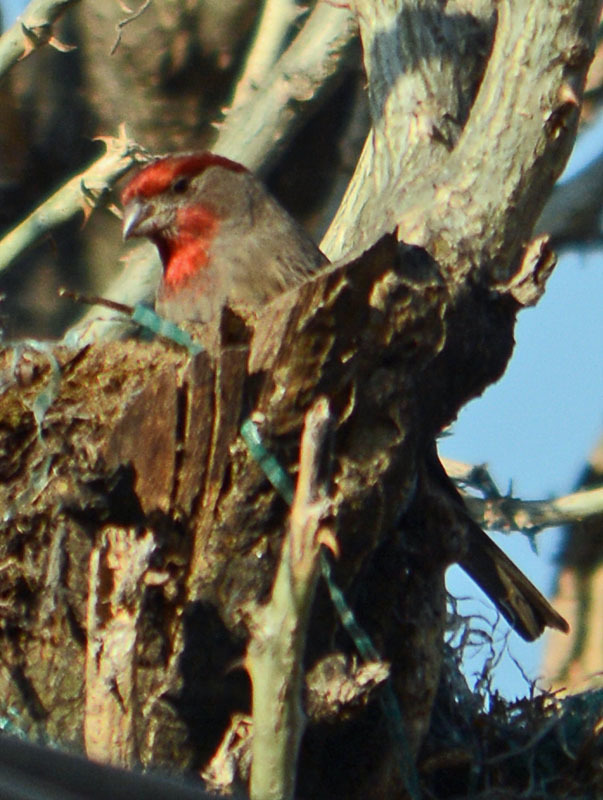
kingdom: Animalia
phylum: Chordata
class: Aves
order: Passeriformes
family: Fringillidae
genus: Haemorhous
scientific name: Haemorhous mexicanus
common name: House finch
